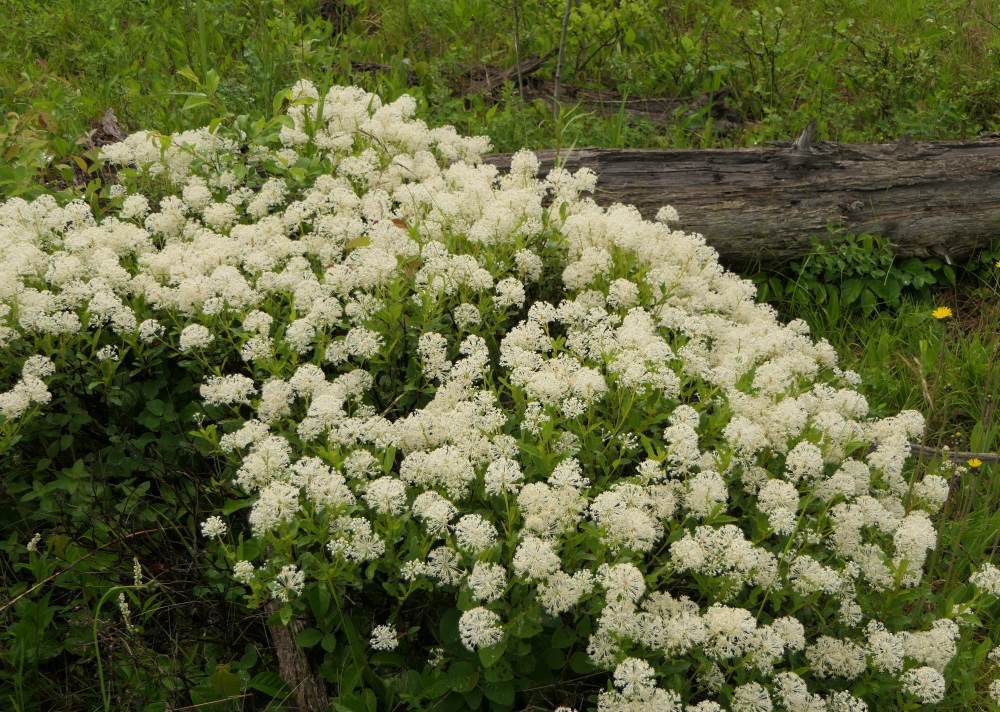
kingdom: Plantae
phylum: Tracheophyta
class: Magnoliopsida
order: Rosales
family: Rhamnaceae
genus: Ceanothus
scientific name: Ceanothus herbaceus
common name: Inland ceanothus
